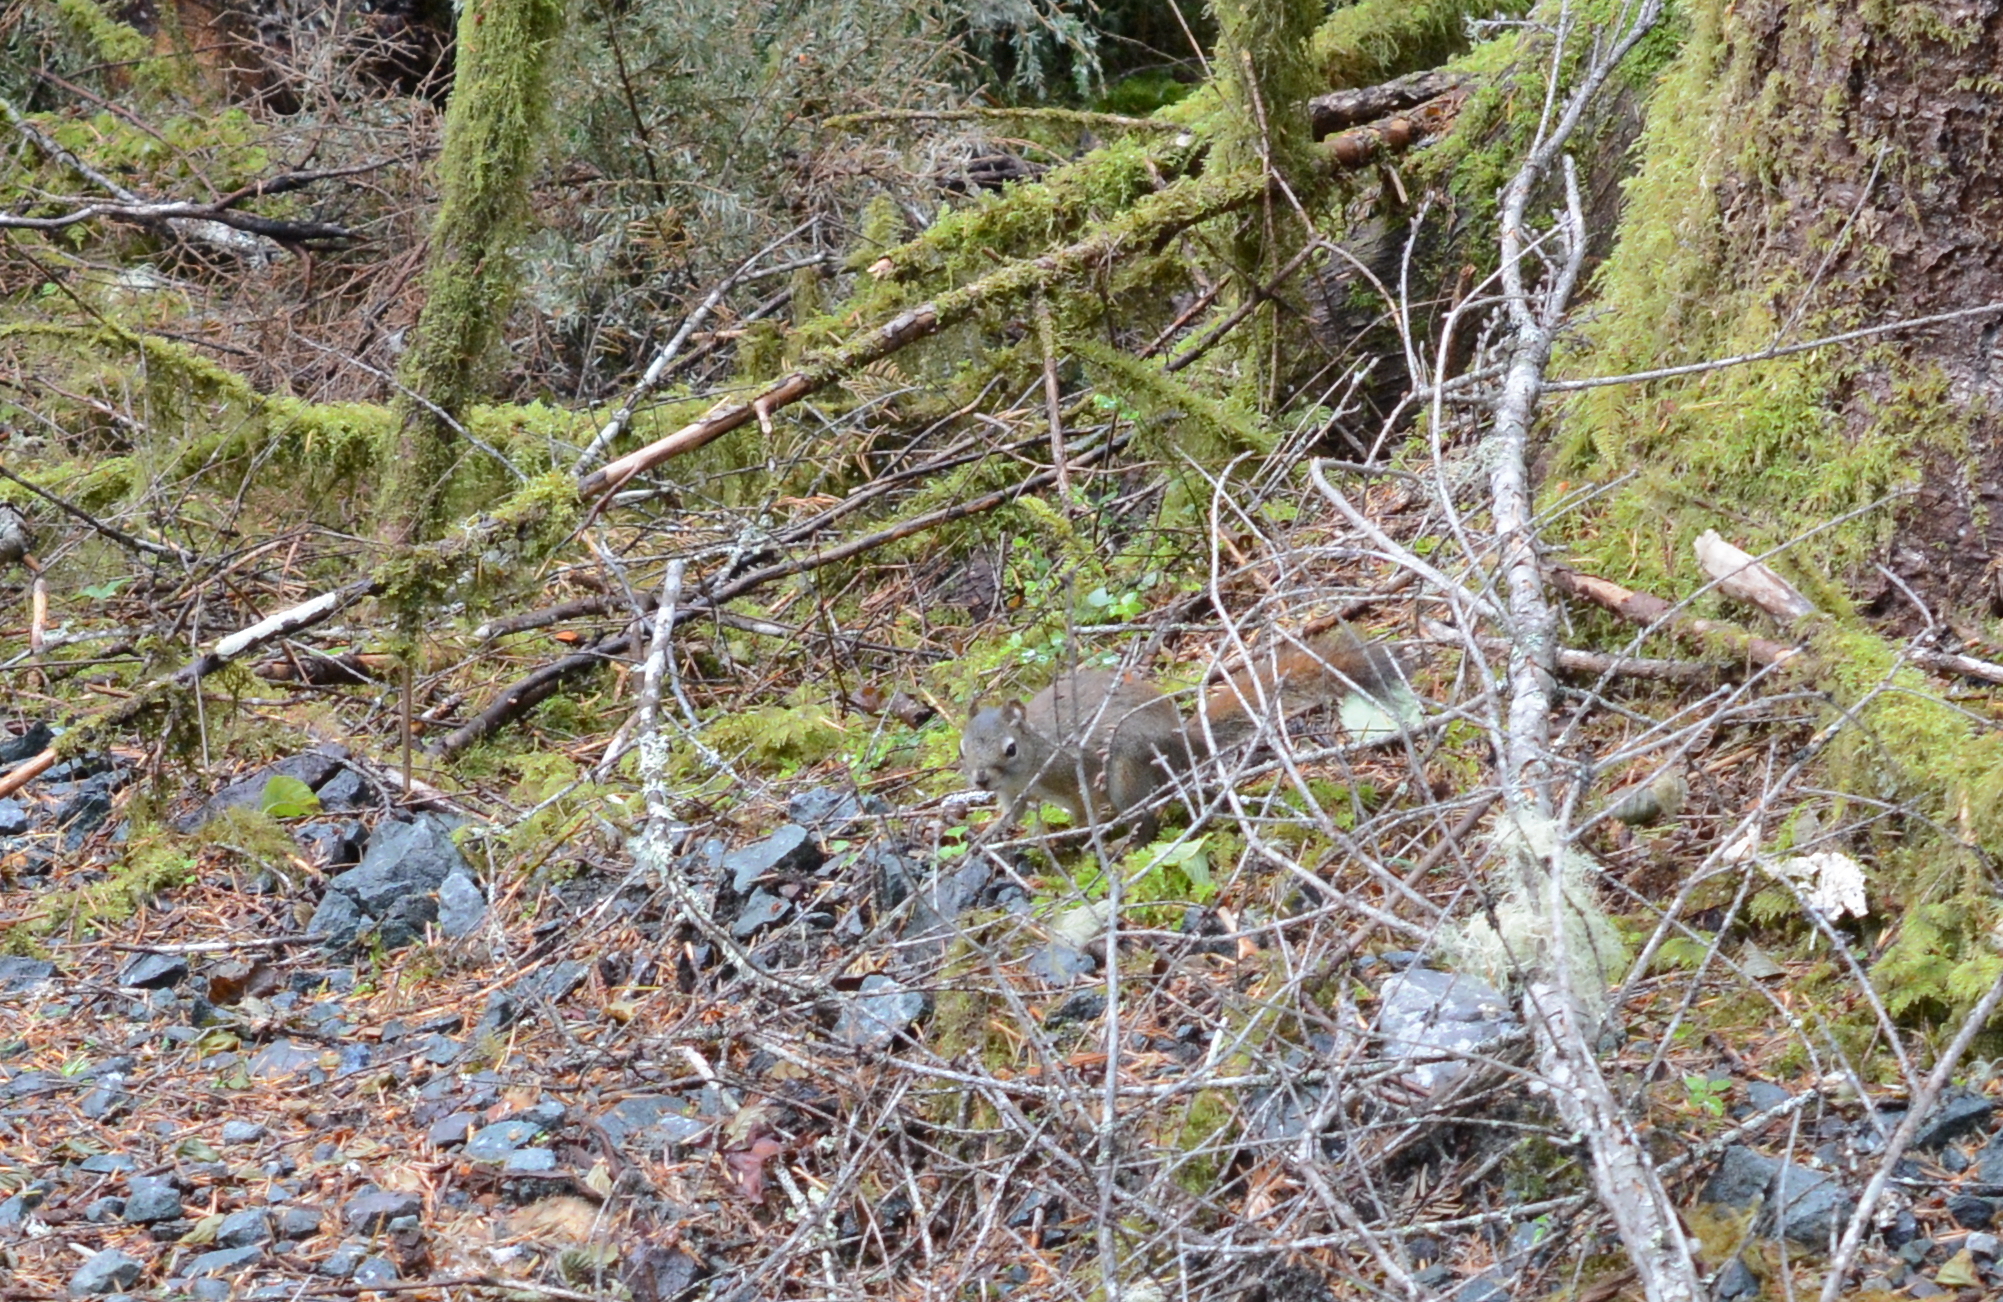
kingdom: Animalia
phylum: Chordata
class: Mammalia
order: Rodentia
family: Sciuridae
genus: Tamiasciurus
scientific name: Tamiasciurus hudsonicus
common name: Red squirrel
